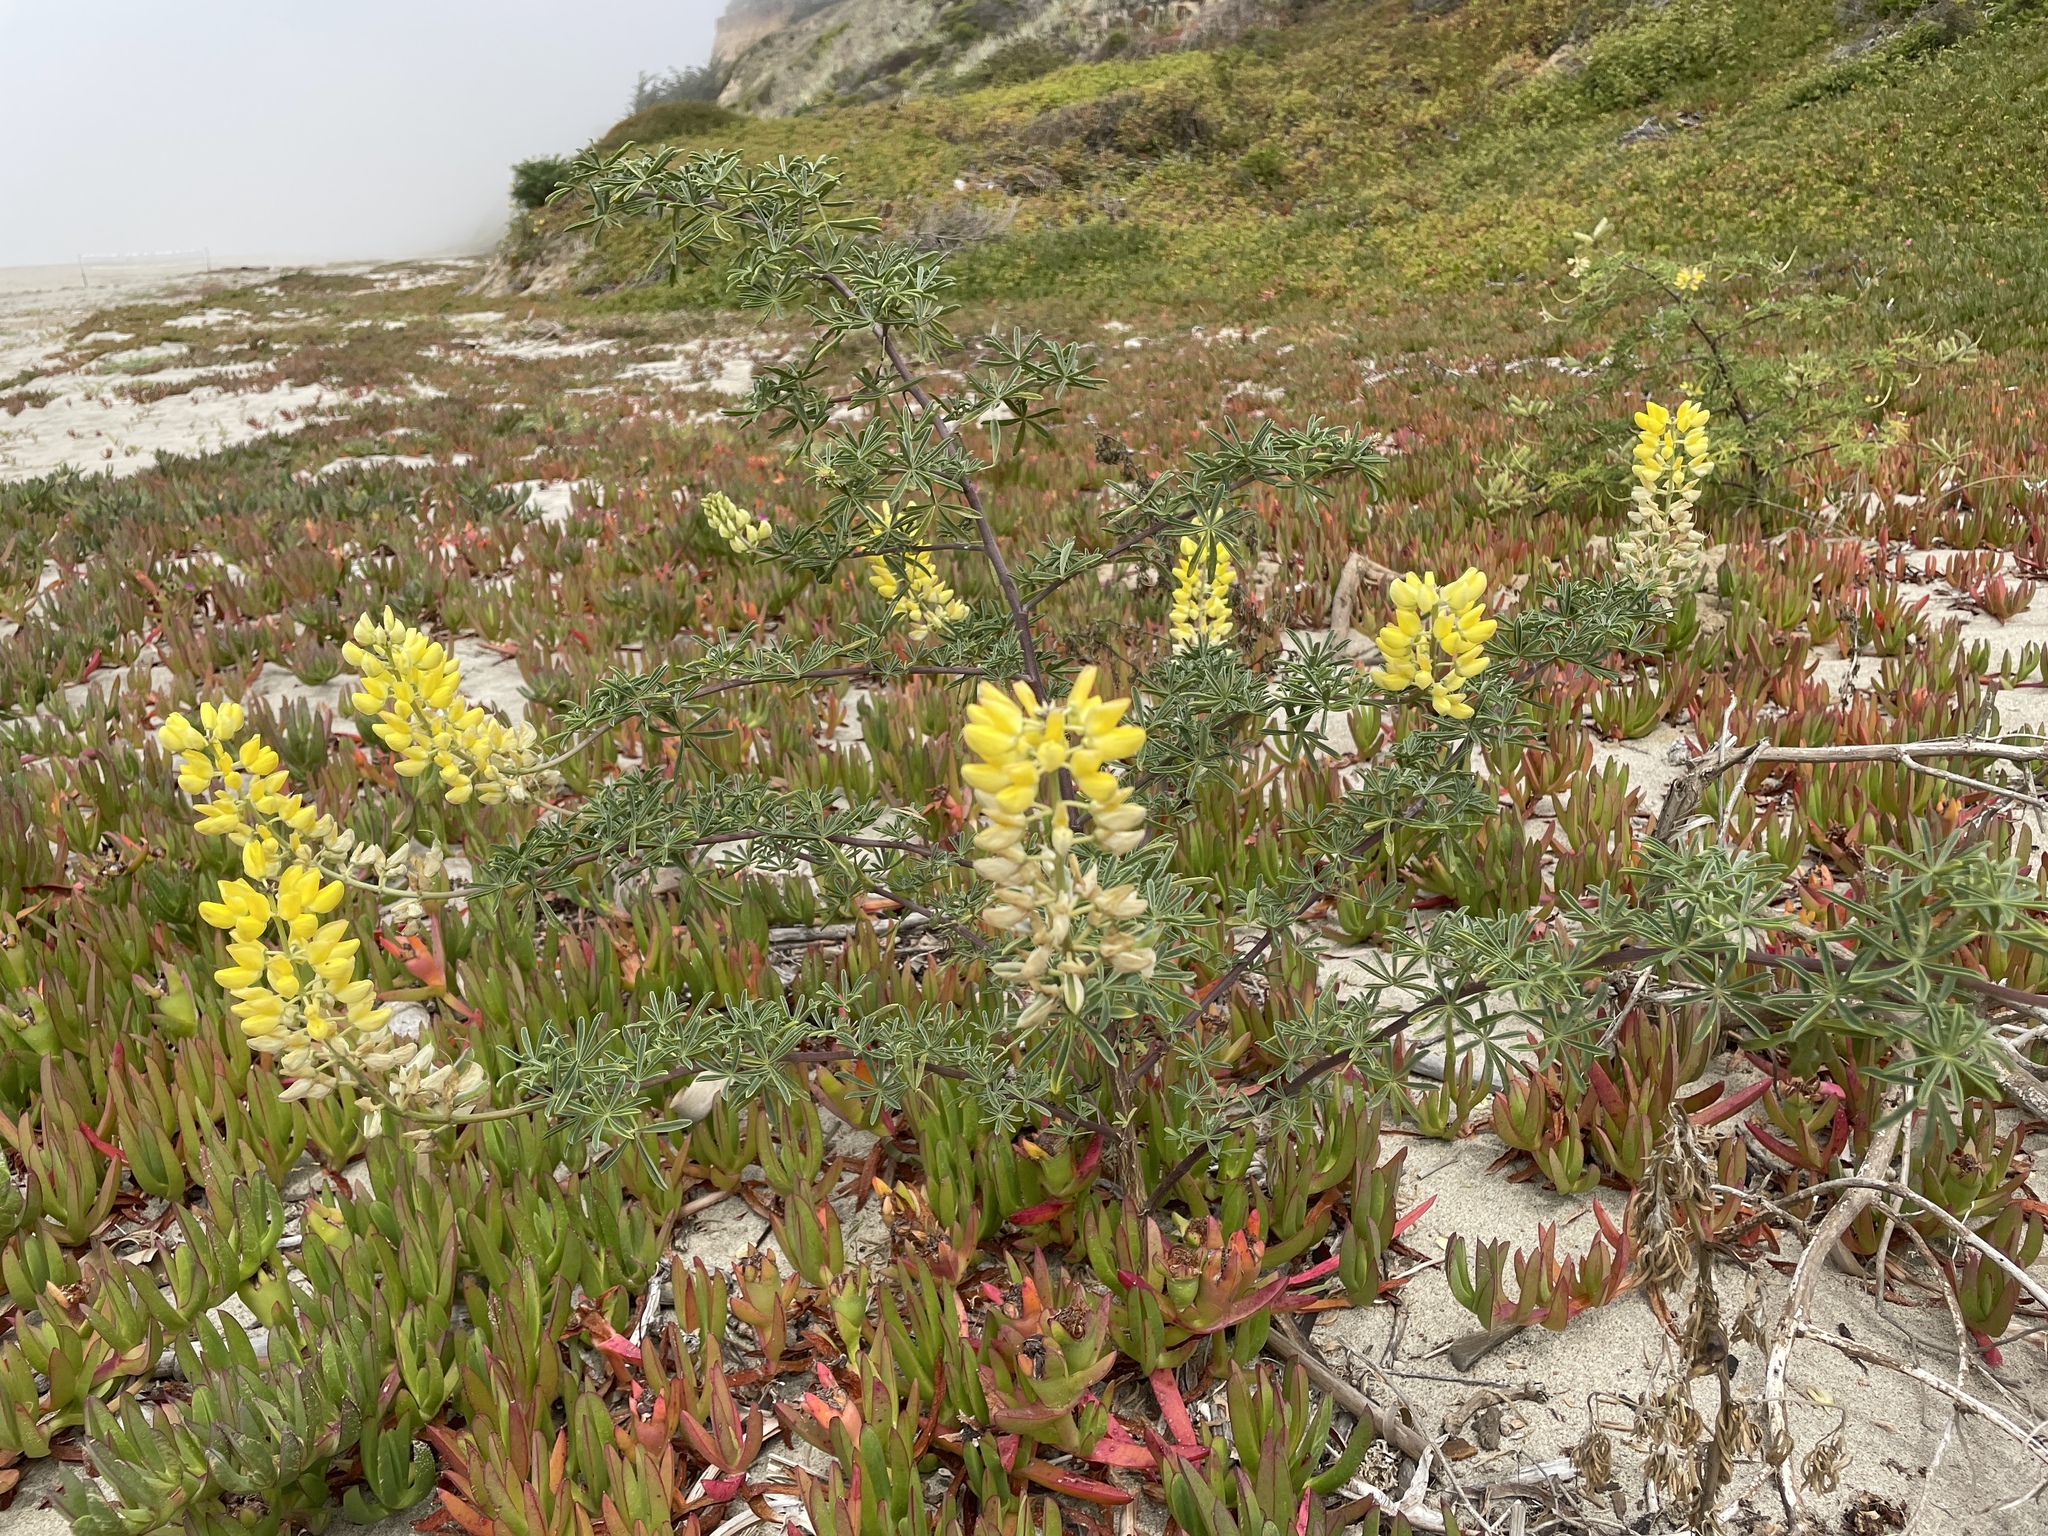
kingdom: Plantae
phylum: Tracheophyta
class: Magnoliopsida
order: Fabales
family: Fabaceae
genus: Lupinus
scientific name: Lupinus arboreus
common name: Yellow bush lupine
